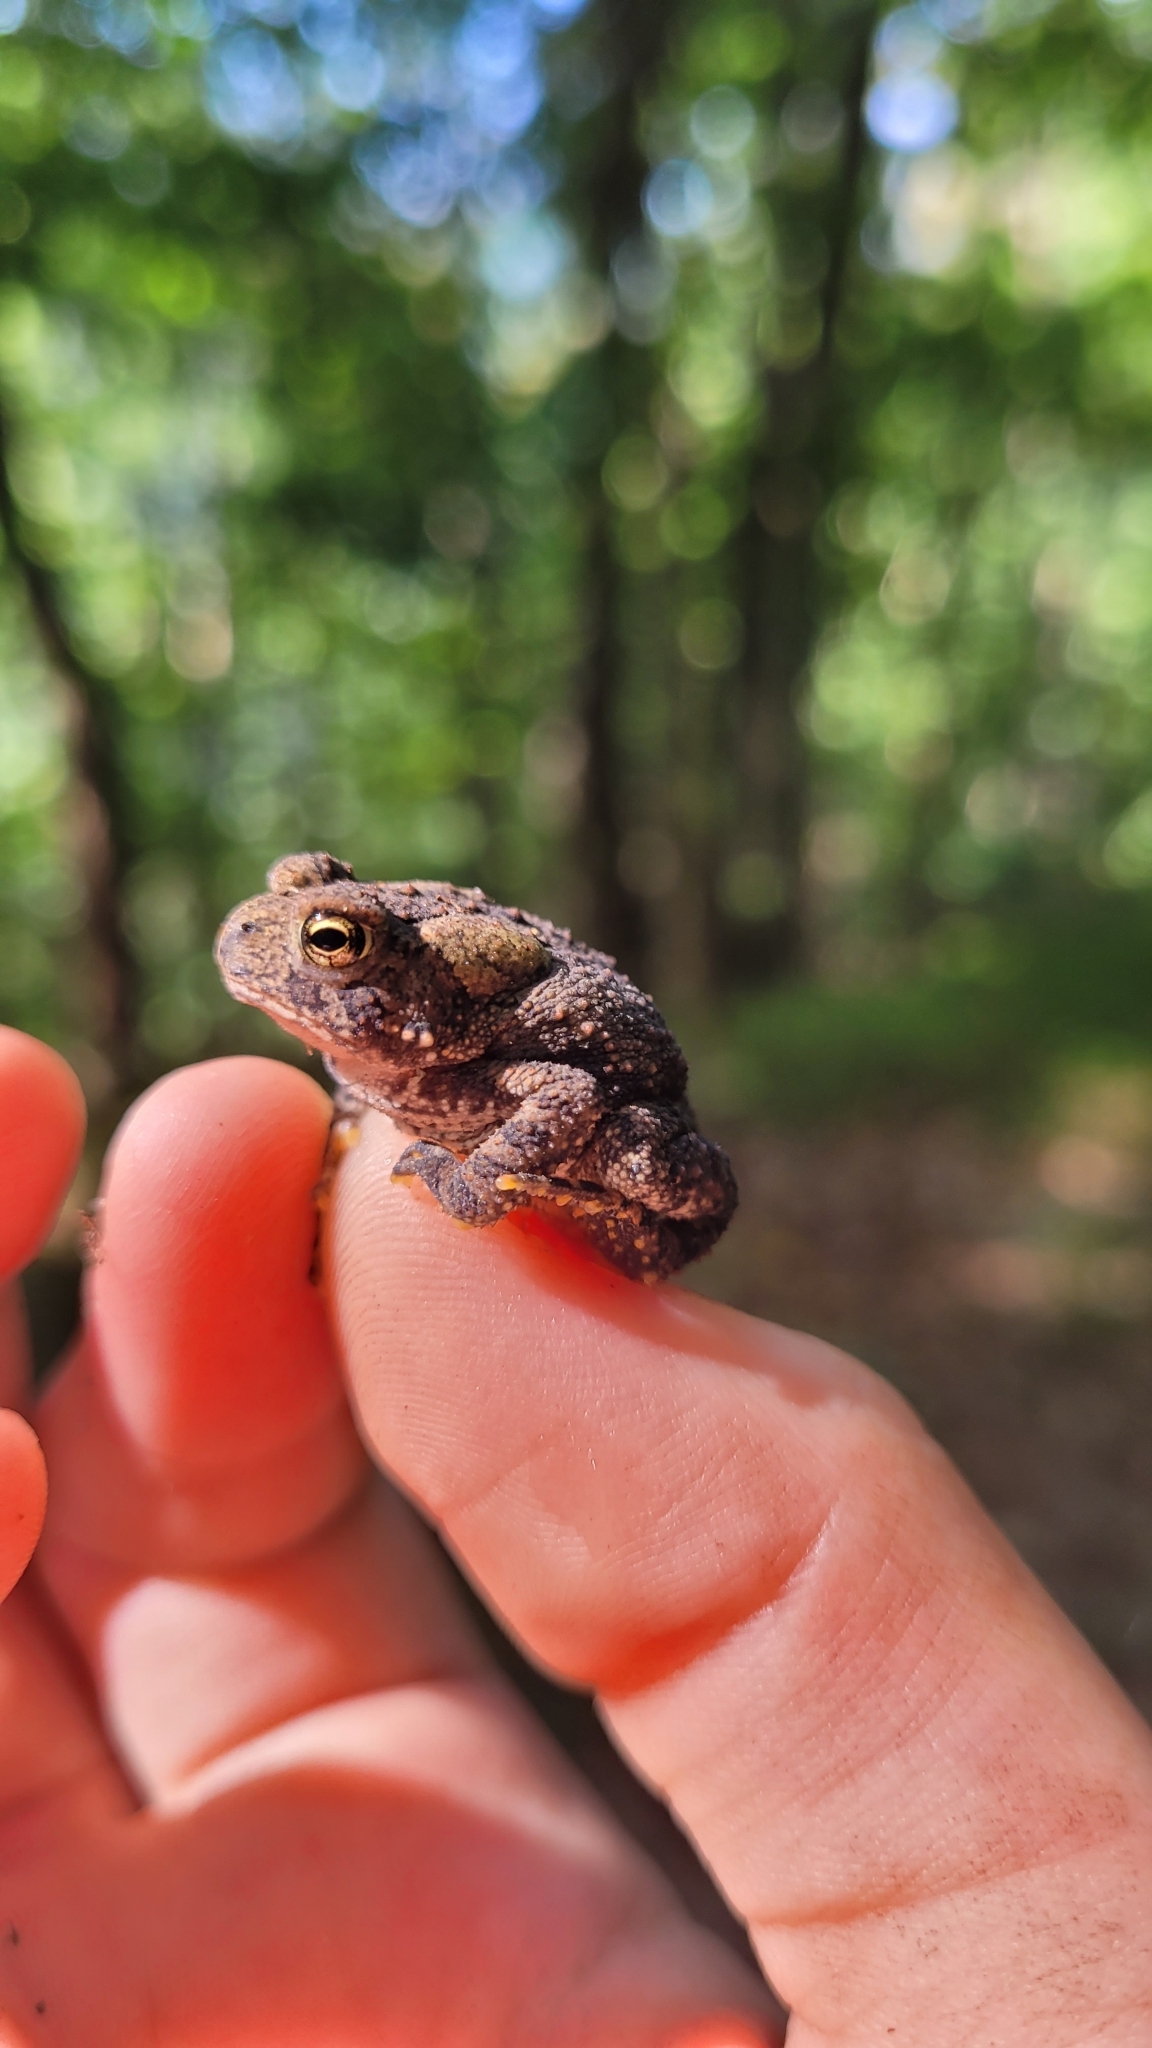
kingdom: Animalia
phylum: Chordata
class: Amphibia
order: Anura
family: Bufonidae
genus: Anaxyrus
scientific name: Anaxyrus americanus
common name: American toad
